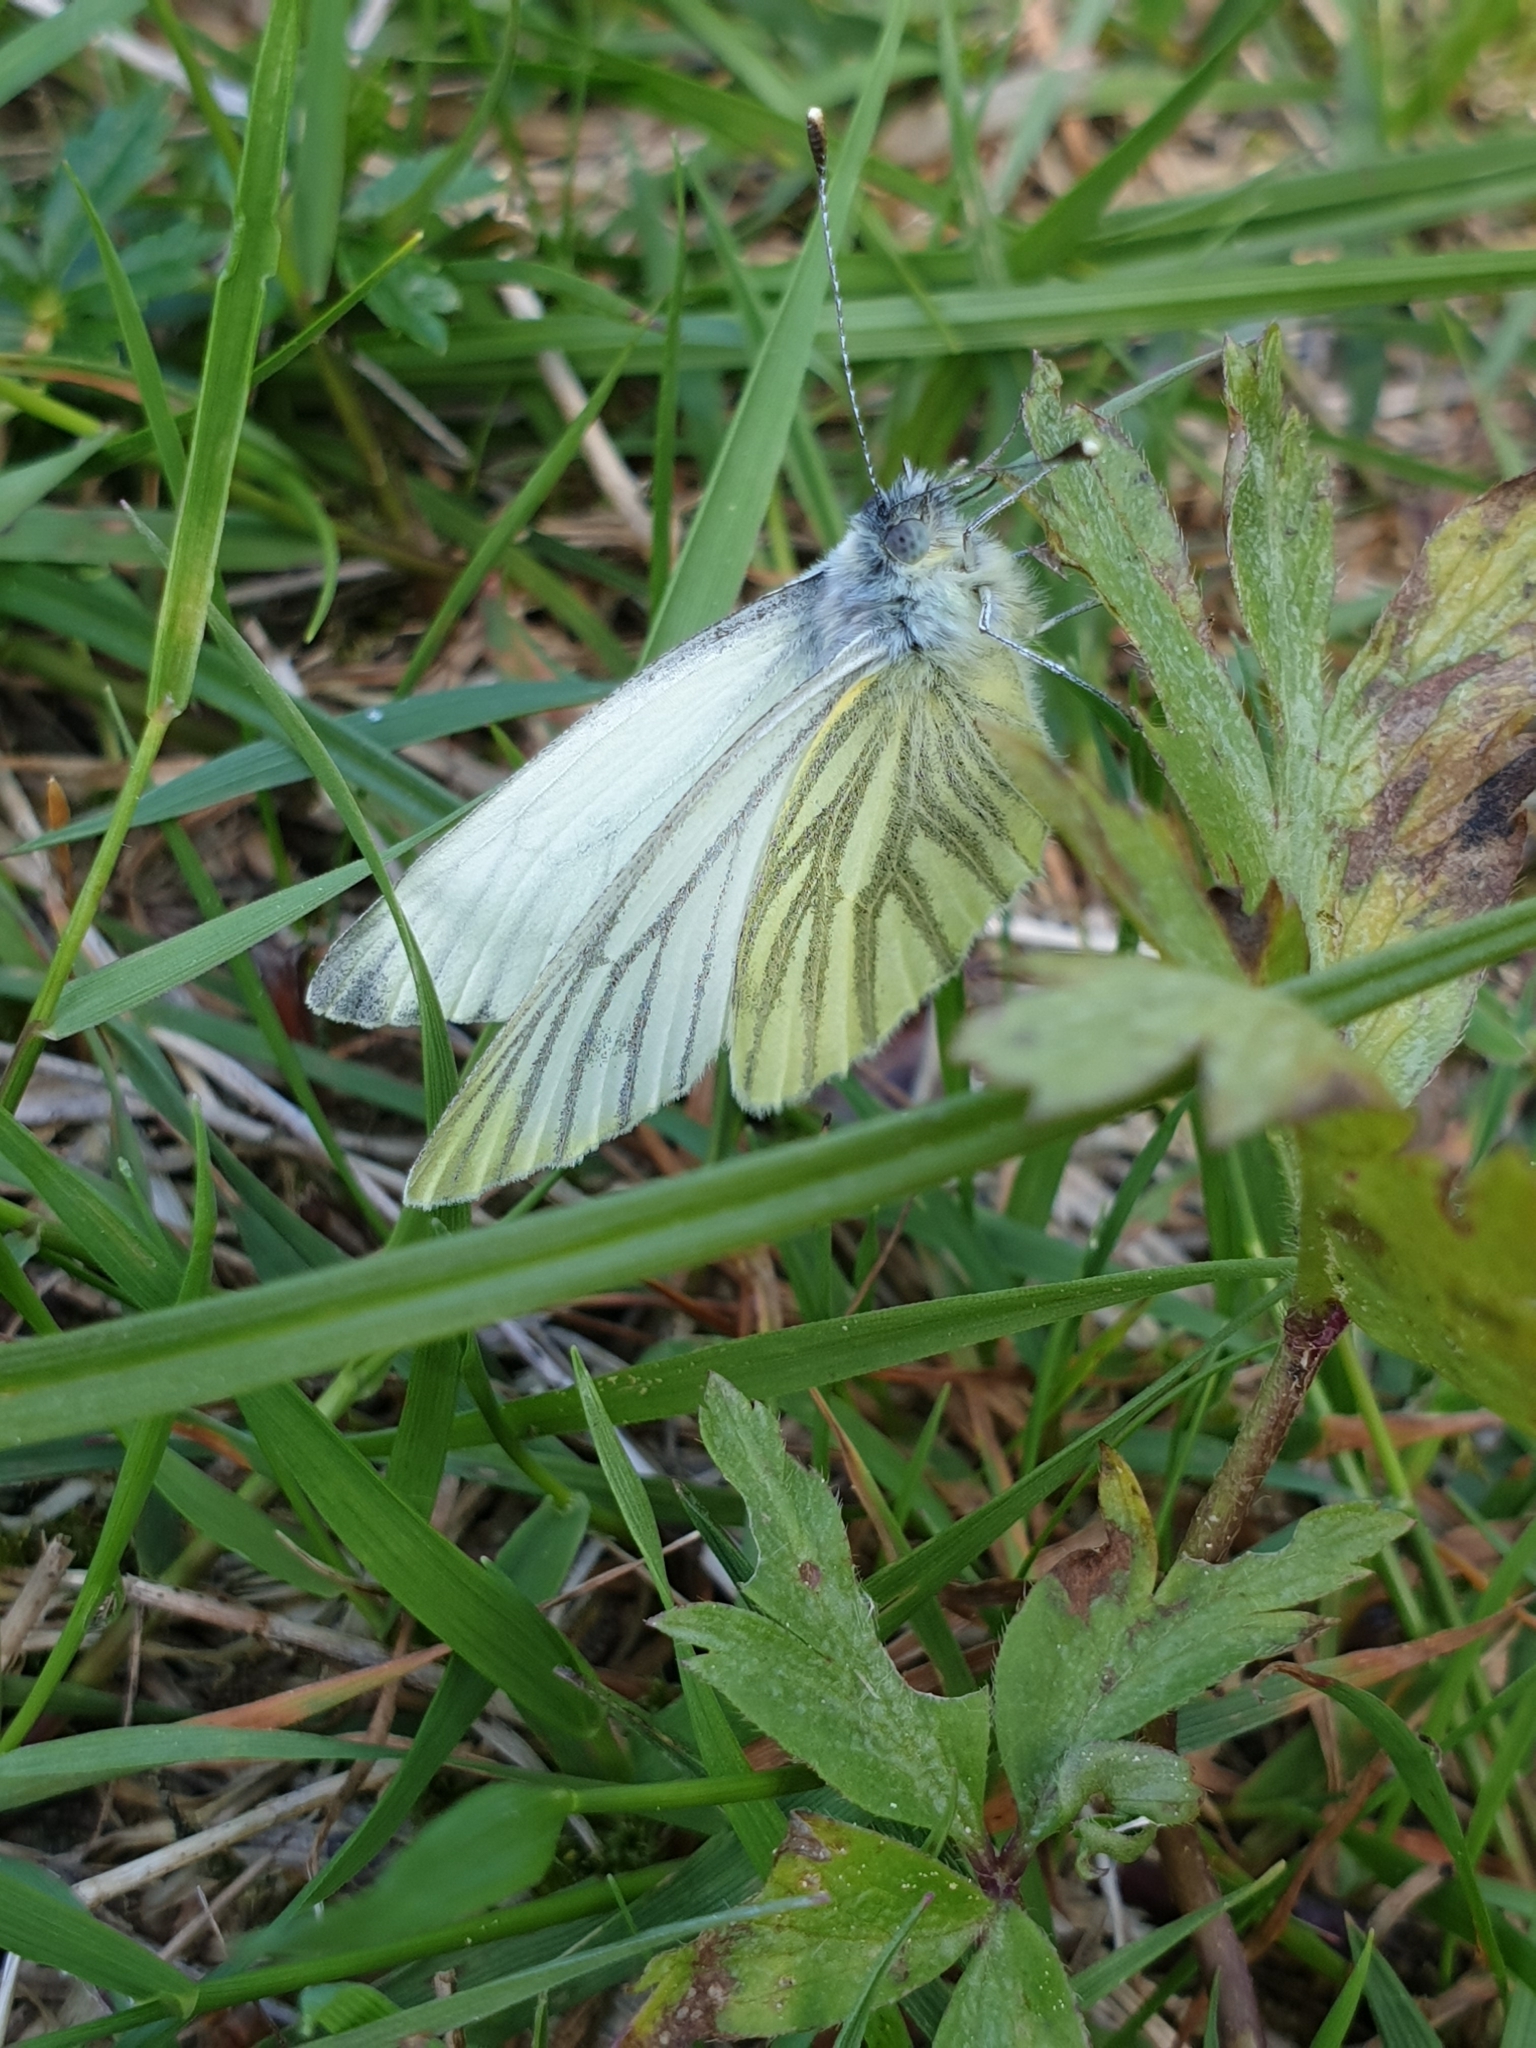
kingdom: Animalia
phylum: Arthropoda
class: Insecta
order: Lepidoptera
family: Pieridae
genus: Pieris
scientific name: Pieris napi
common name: Green-veined white
